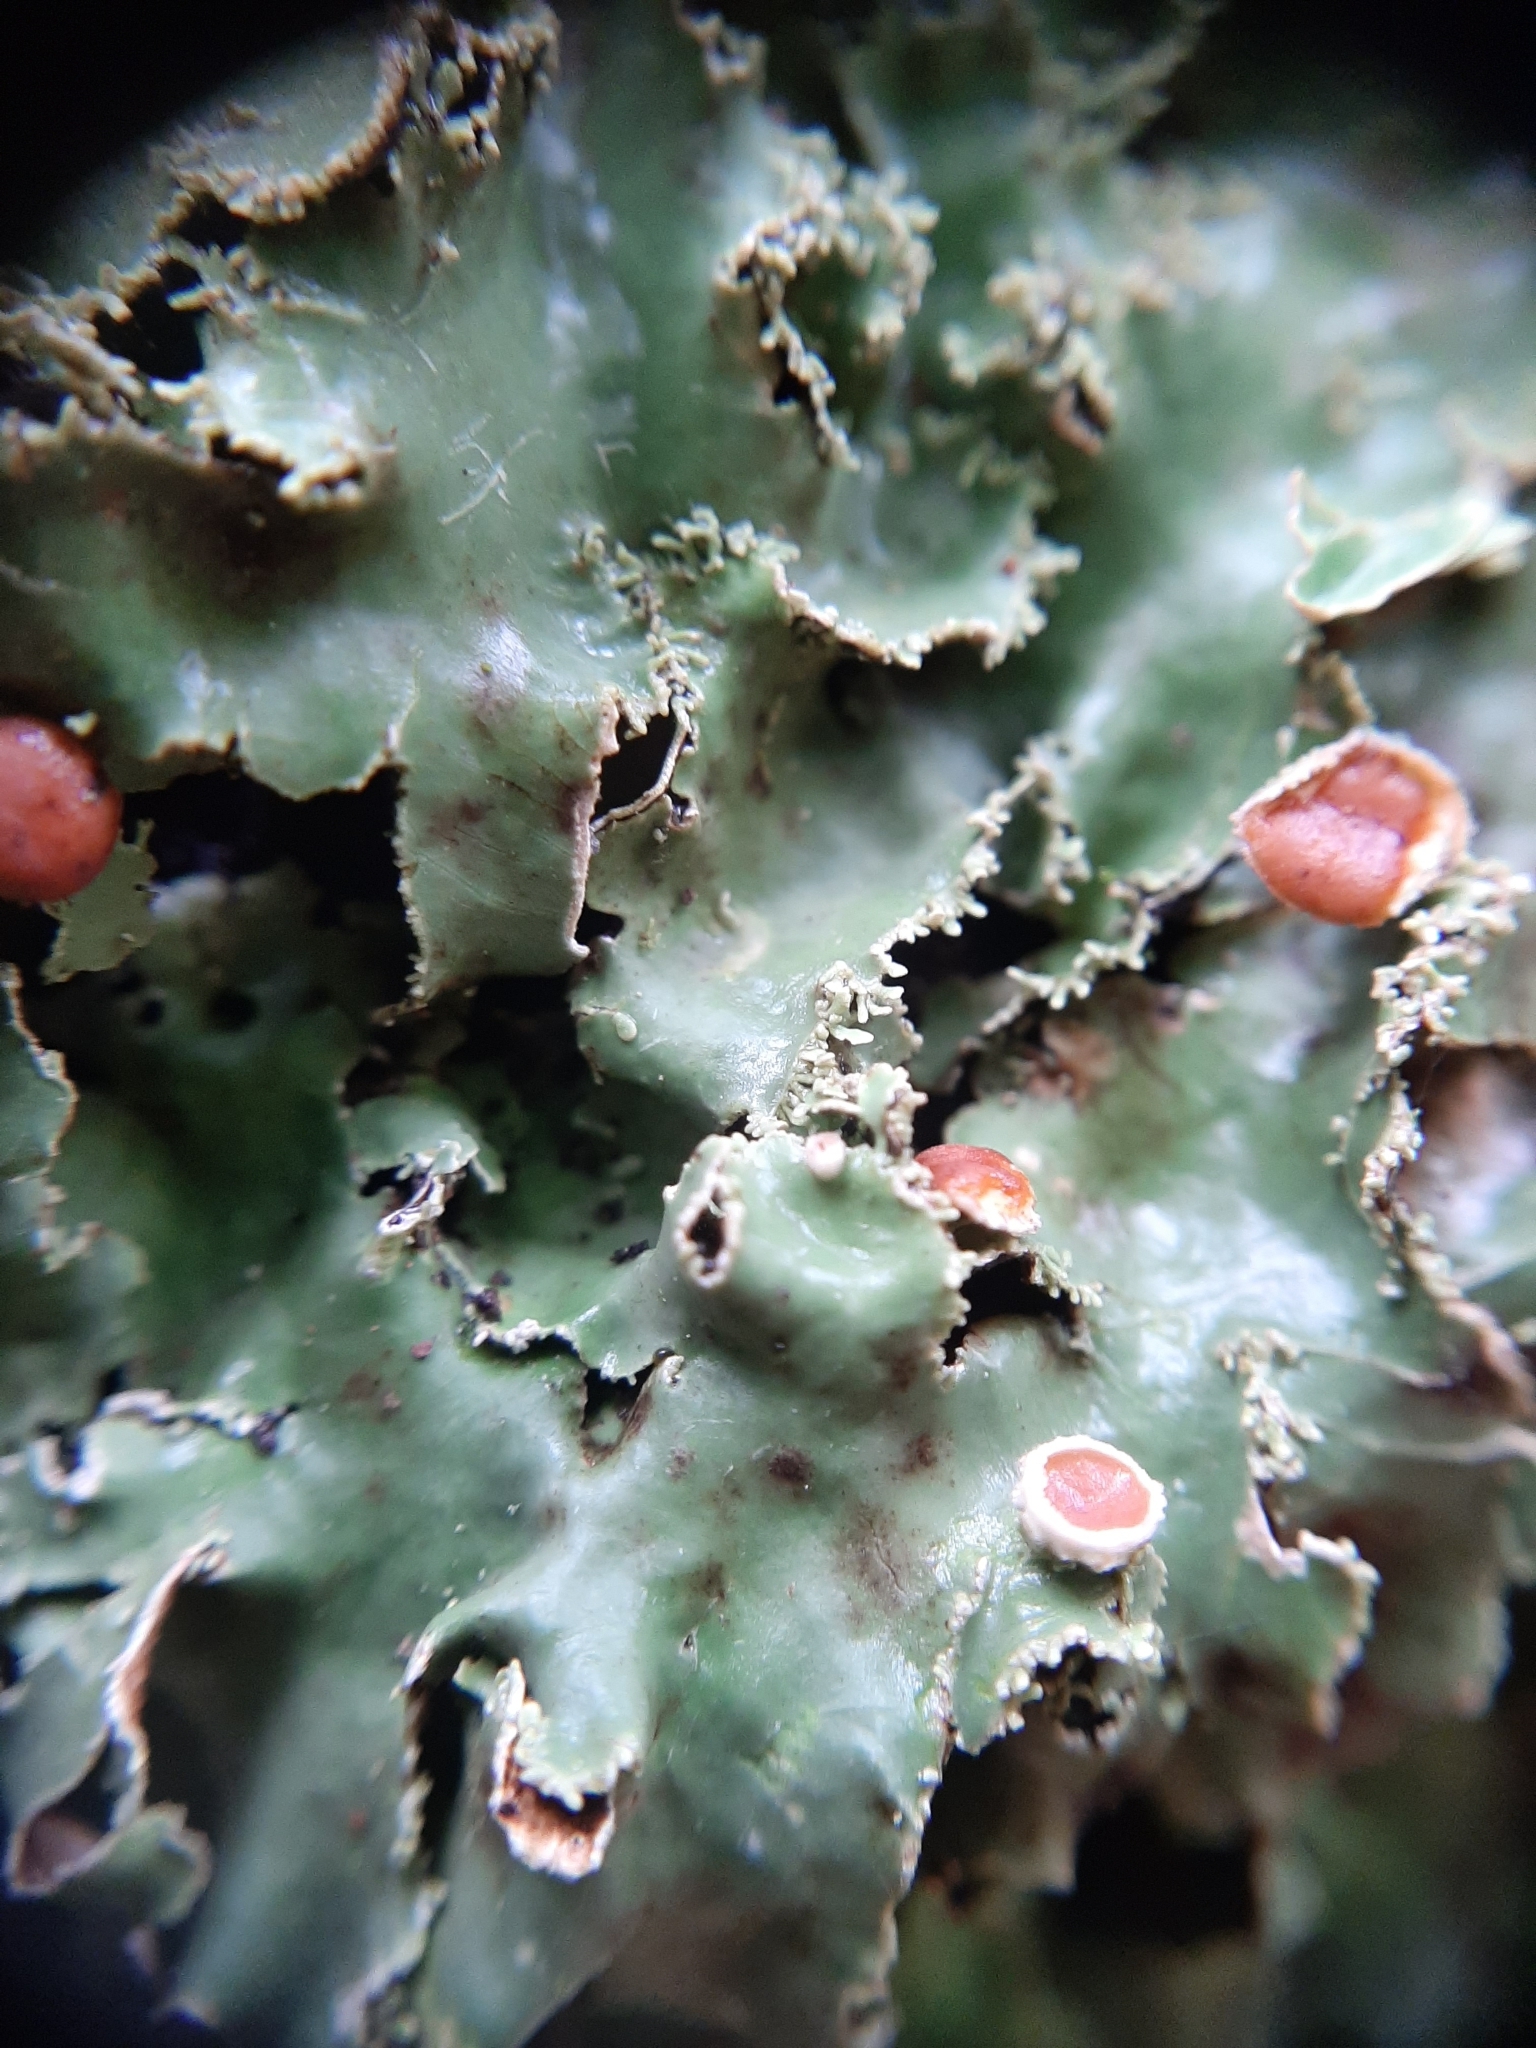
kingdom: Fungi
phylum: Ascomycota
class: Lecanoromycetes
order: Peltigerales
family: Lobariaceae
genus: Pseudocyphellaria
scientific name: Pseudocyphellaria glabra
